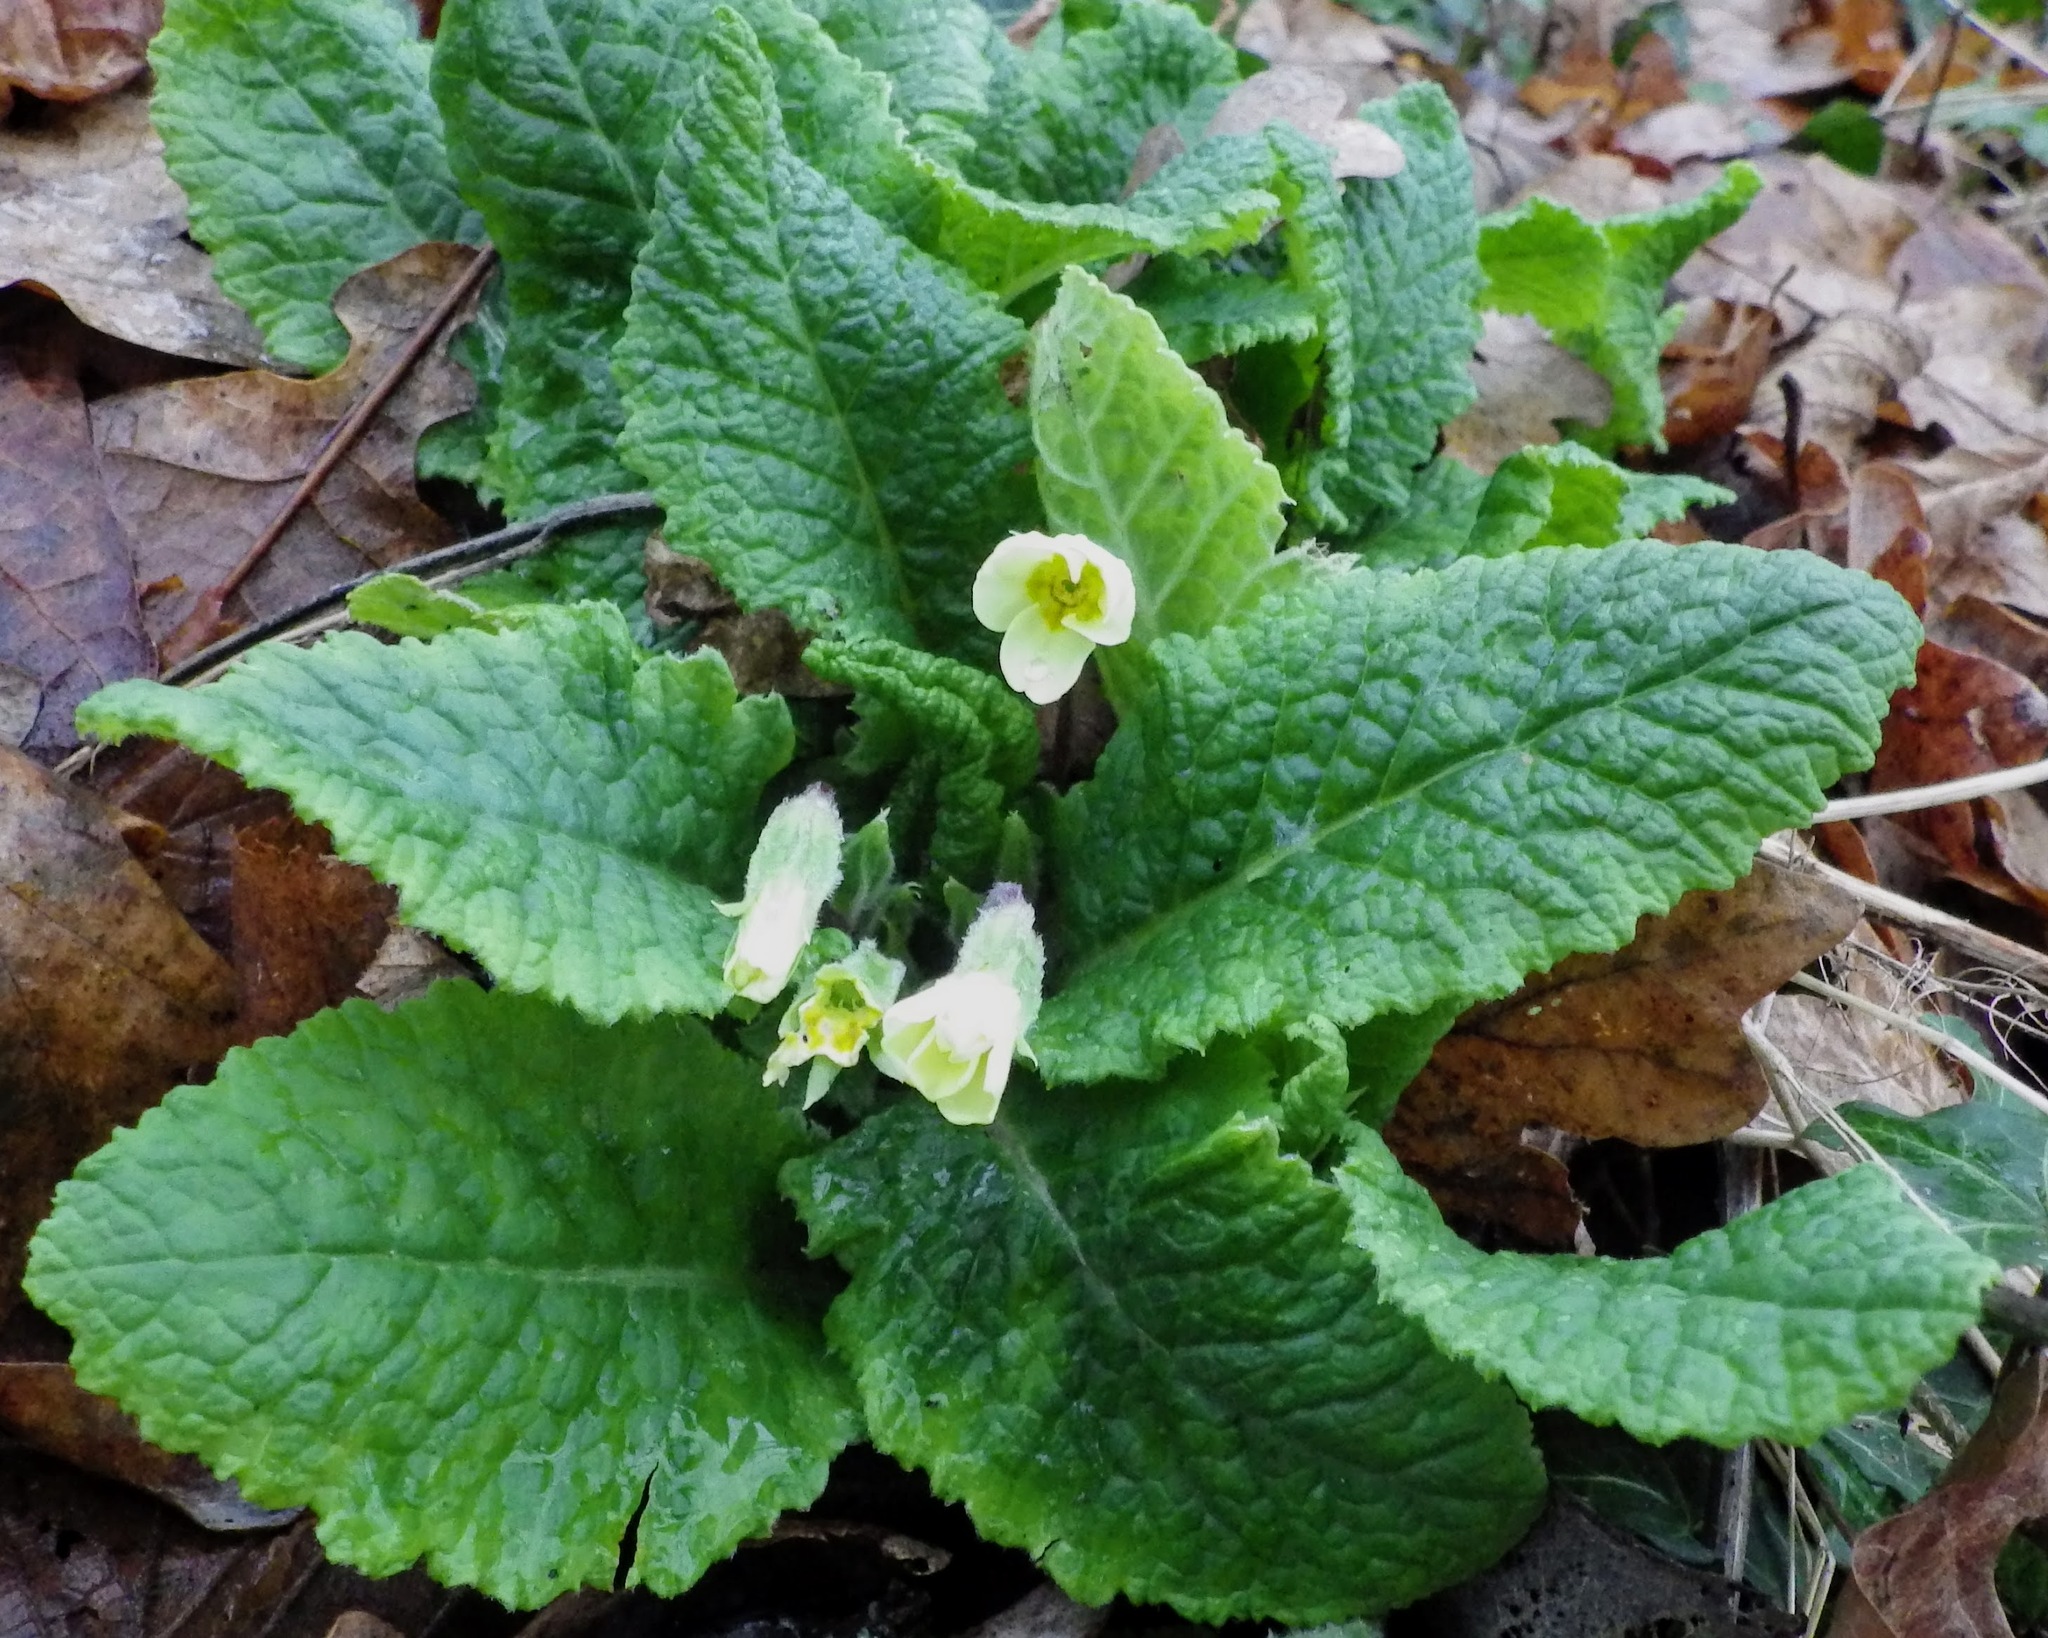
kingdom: Plantae
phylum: Tracheophyta
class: Magnoliopsida
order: Ericales
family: Primulaceae
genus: Primula
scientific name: Primula vulgaris
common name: Primrose
